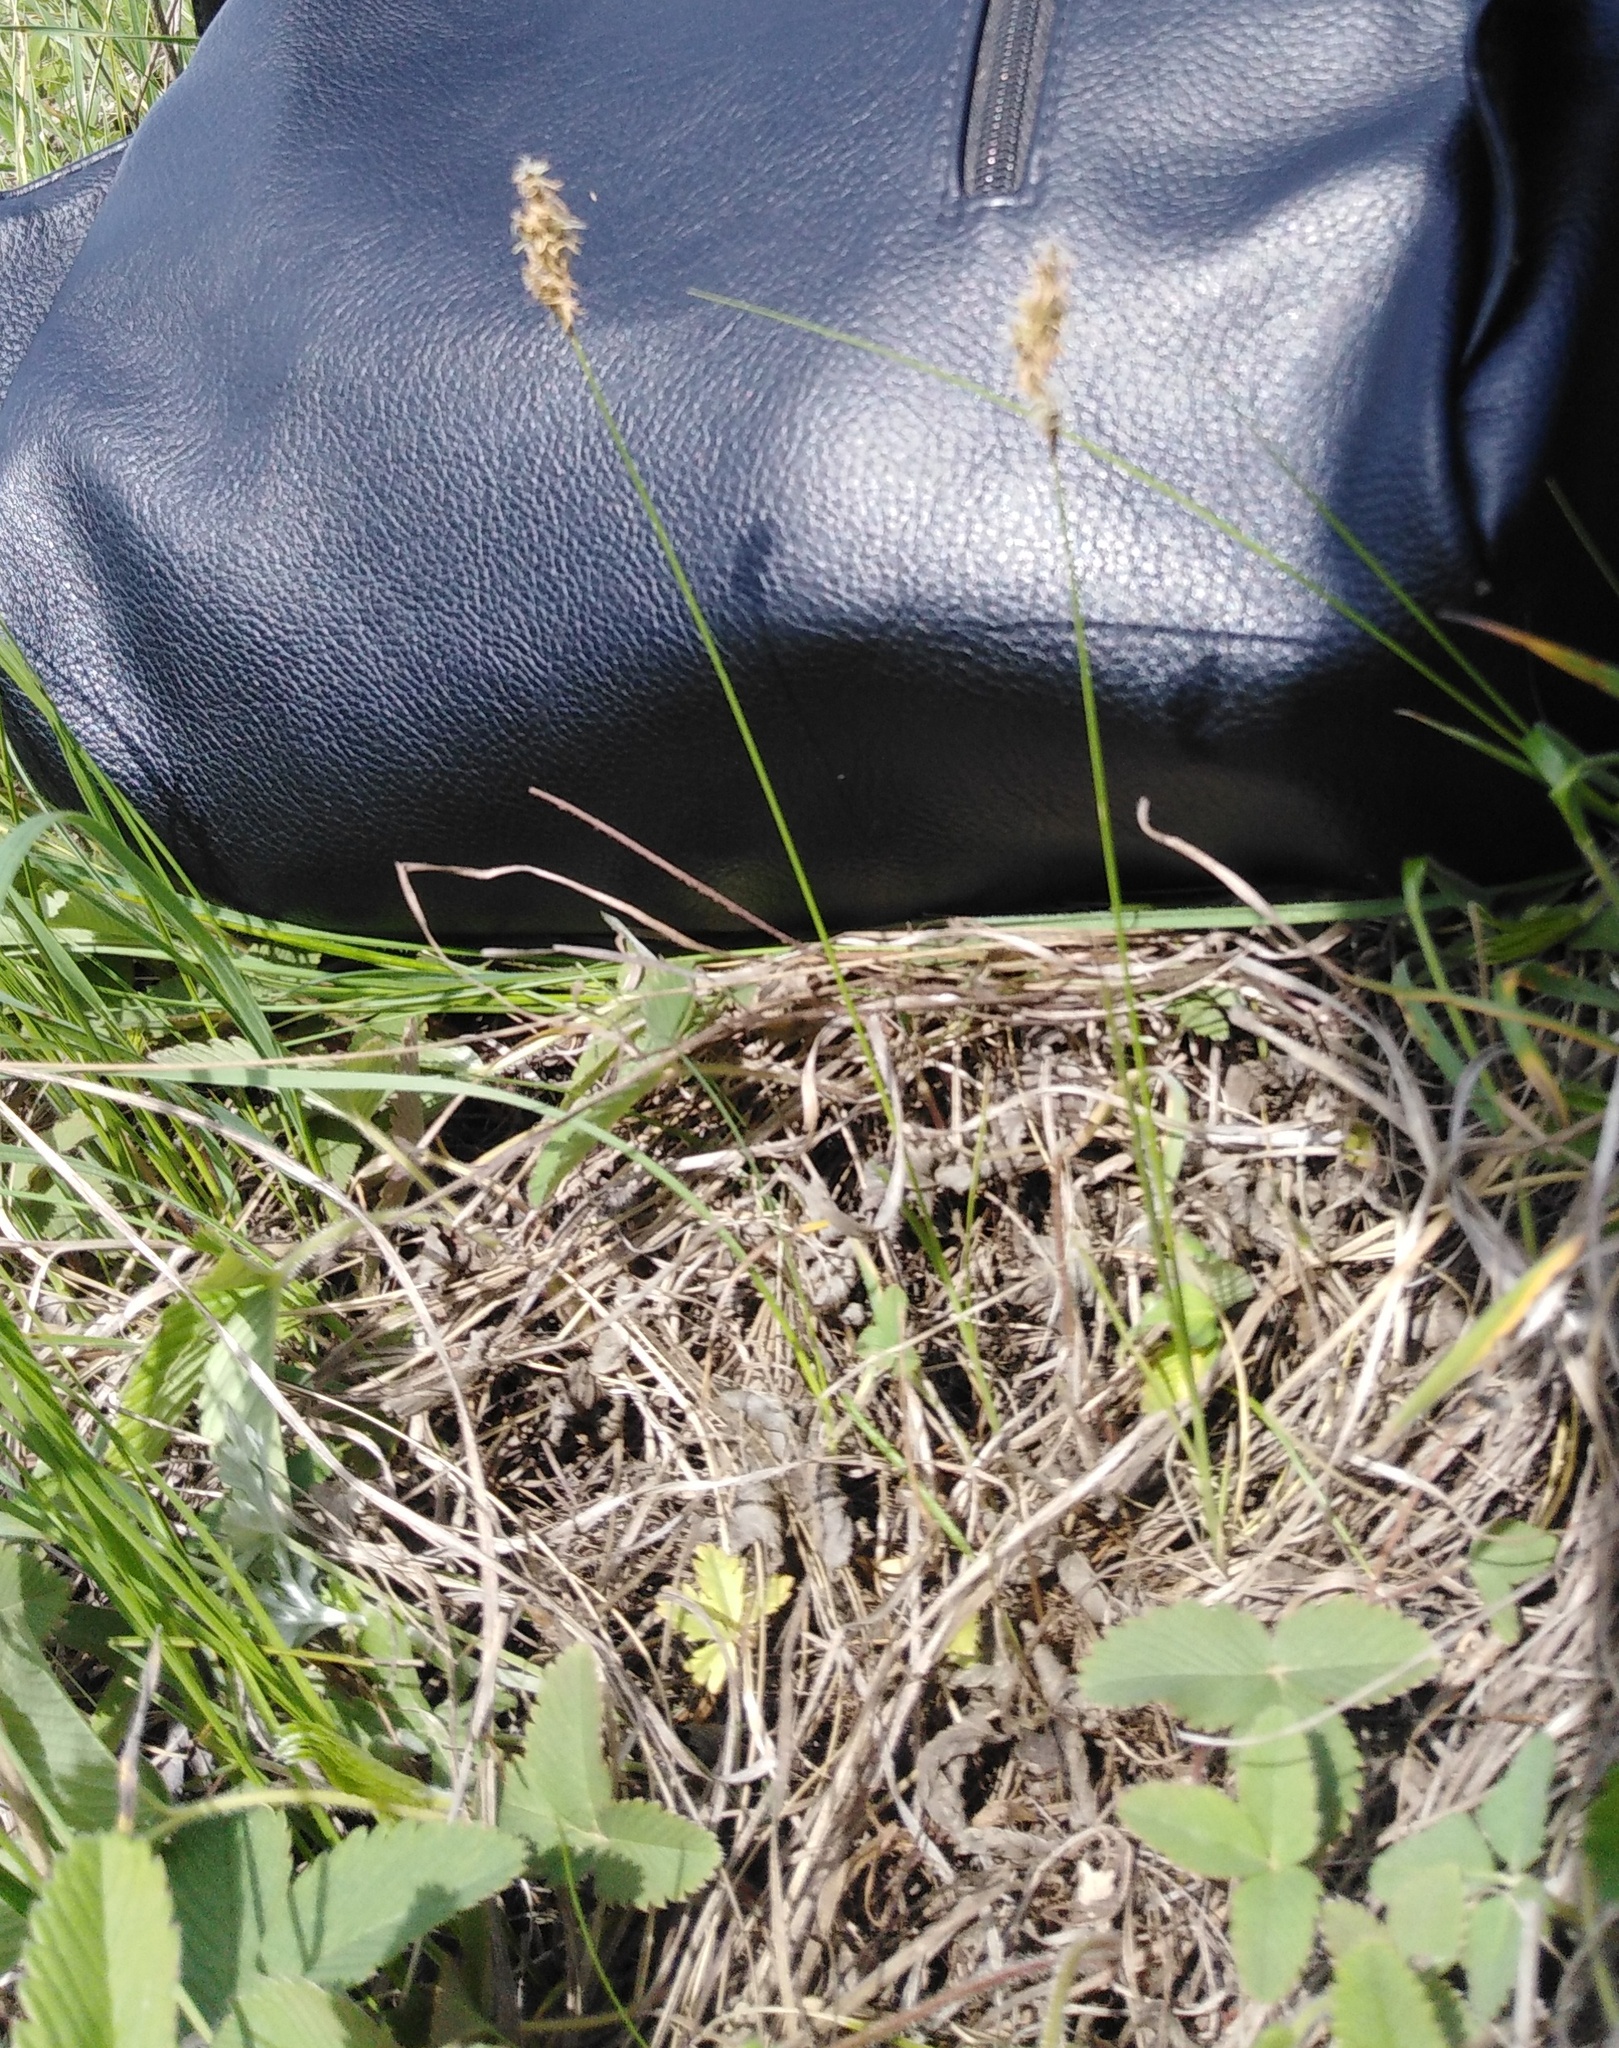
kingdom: Plantae
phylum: Tracheophyta
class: Liliopsida
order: Poales
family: Cyperaceae
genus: Carex
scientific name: Carex praecox
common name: Early sedge
